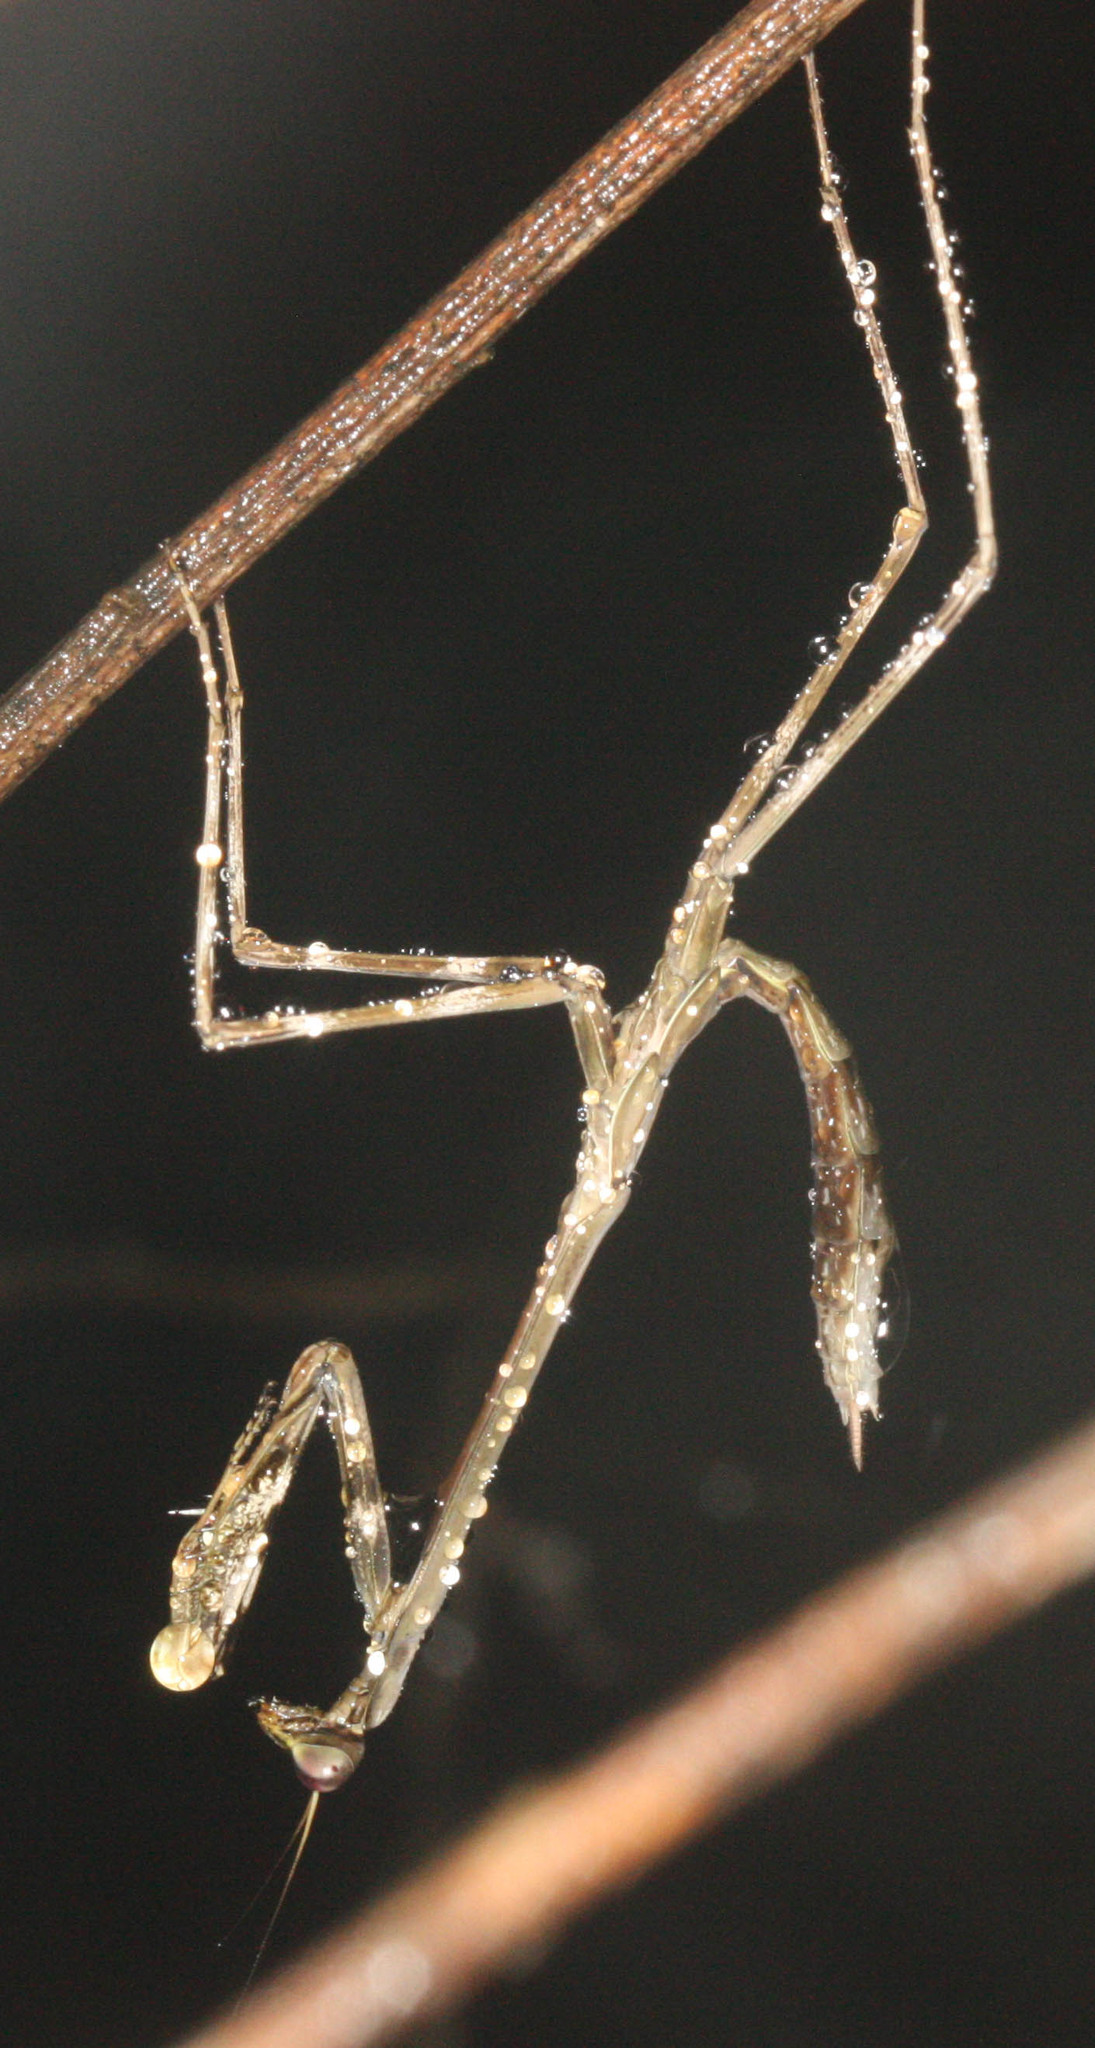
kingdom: Animalia
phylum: Arthropoda
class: Insecta
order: Mantodea
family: Mantidae
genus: Tisma
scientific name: Tisma freyi
